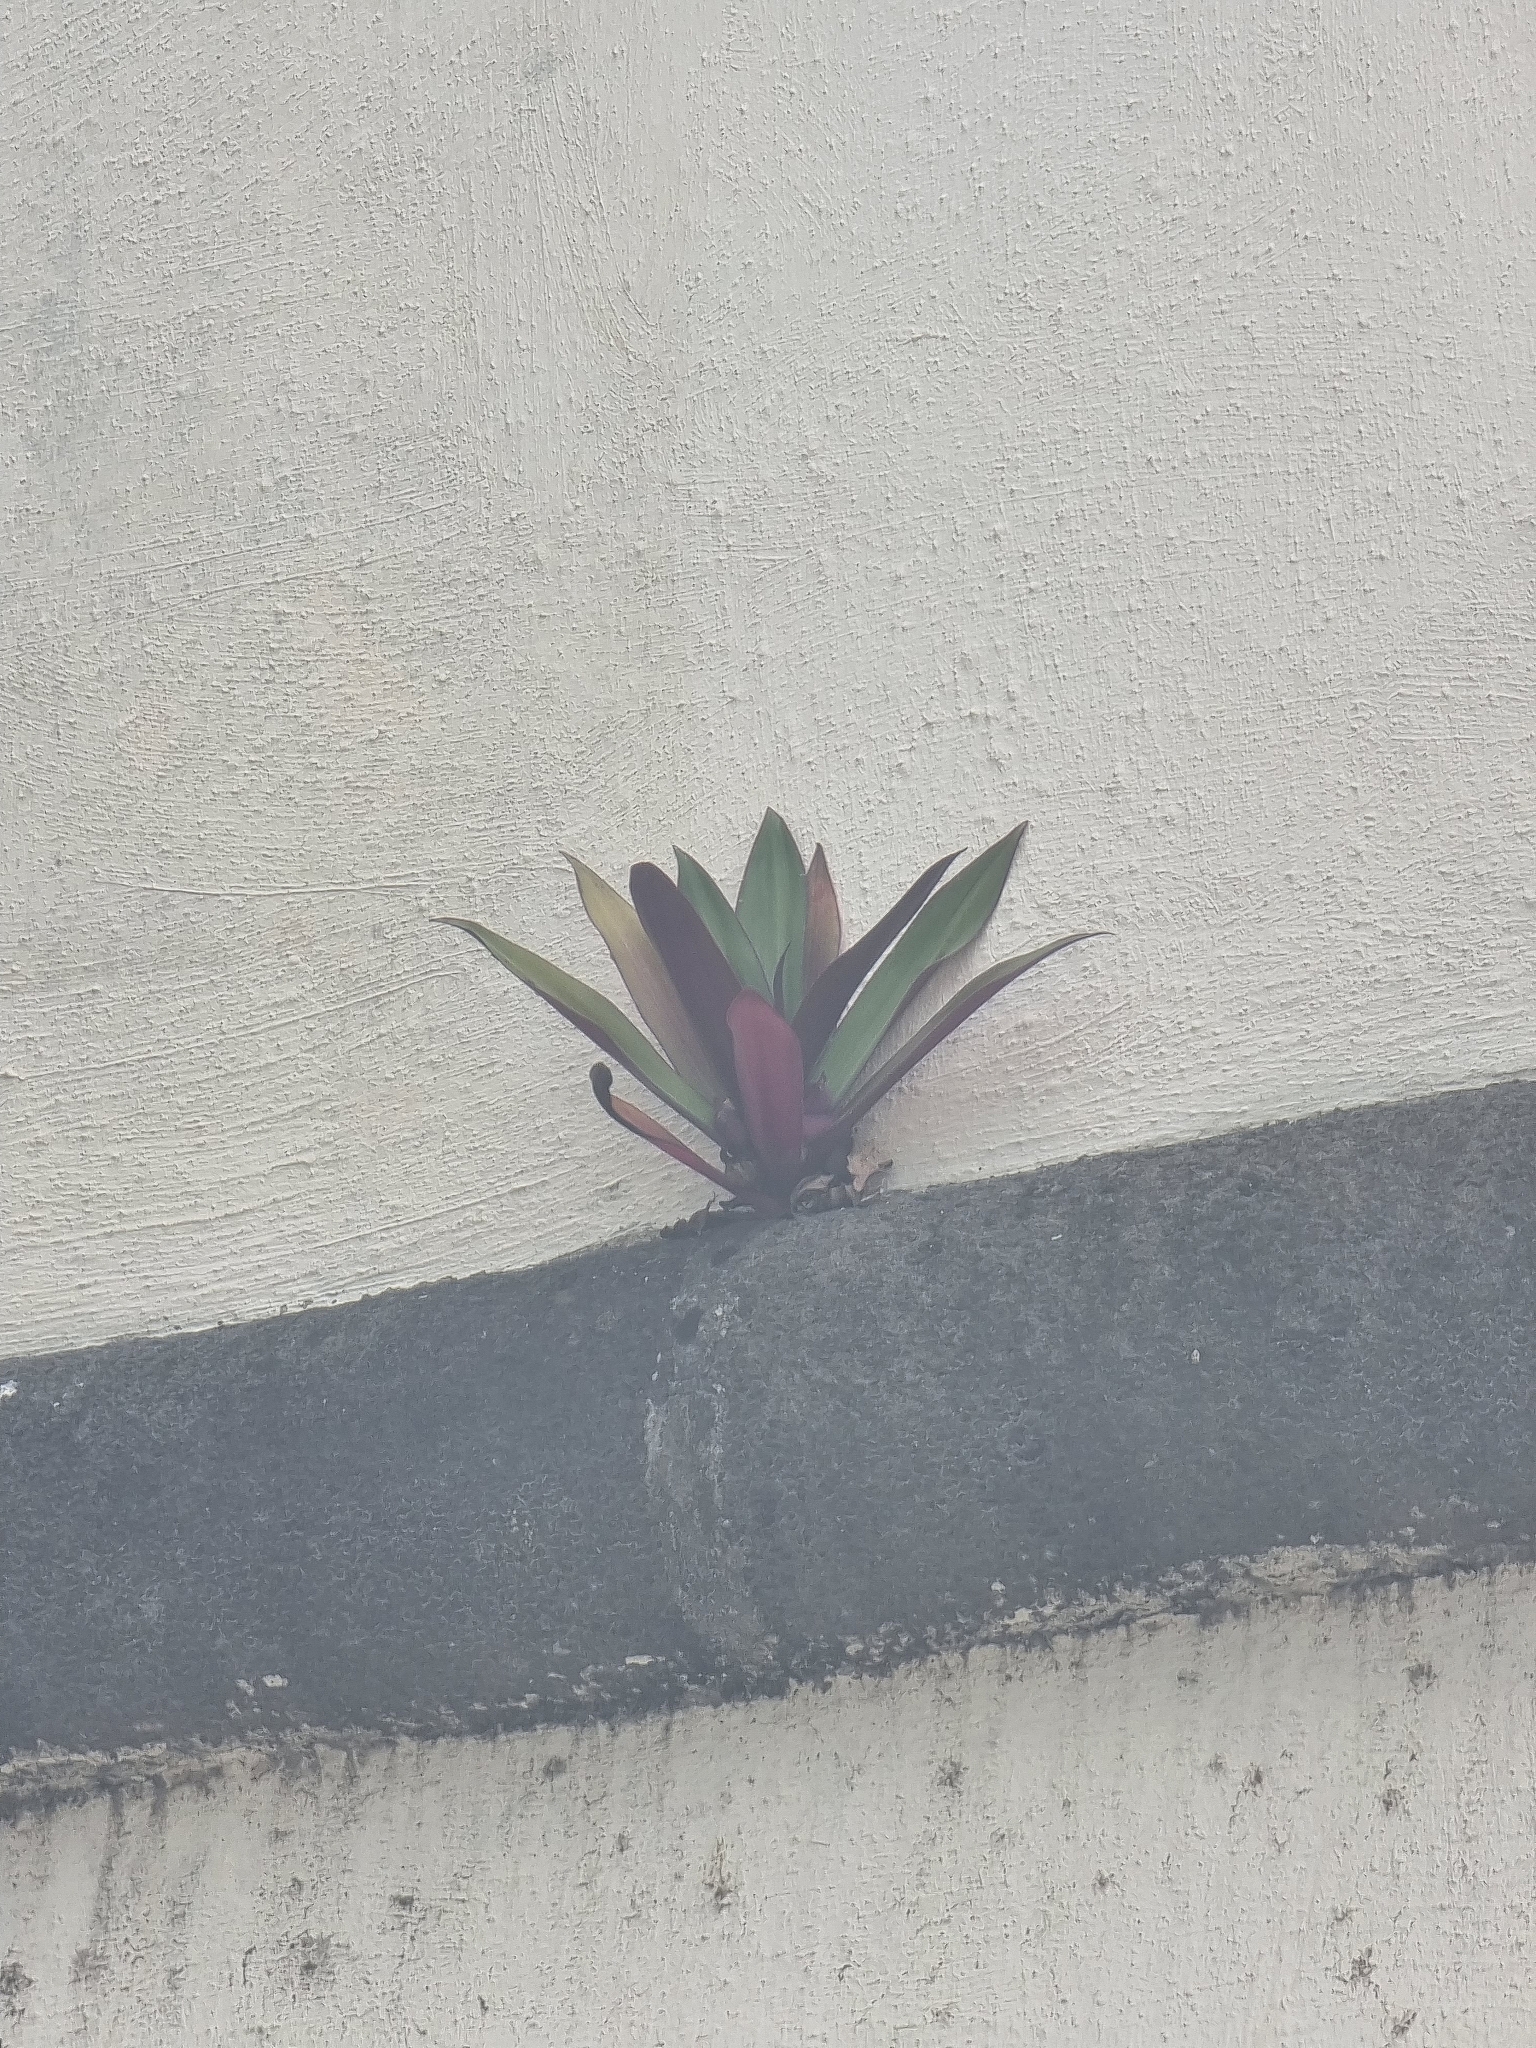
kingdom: Plantae
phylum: Tracheophyta
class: Liliopsida
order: Commelinales
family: Commelinaceae
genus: Tradescantia
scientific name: Tradescantia spathacea
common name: Boatlily
